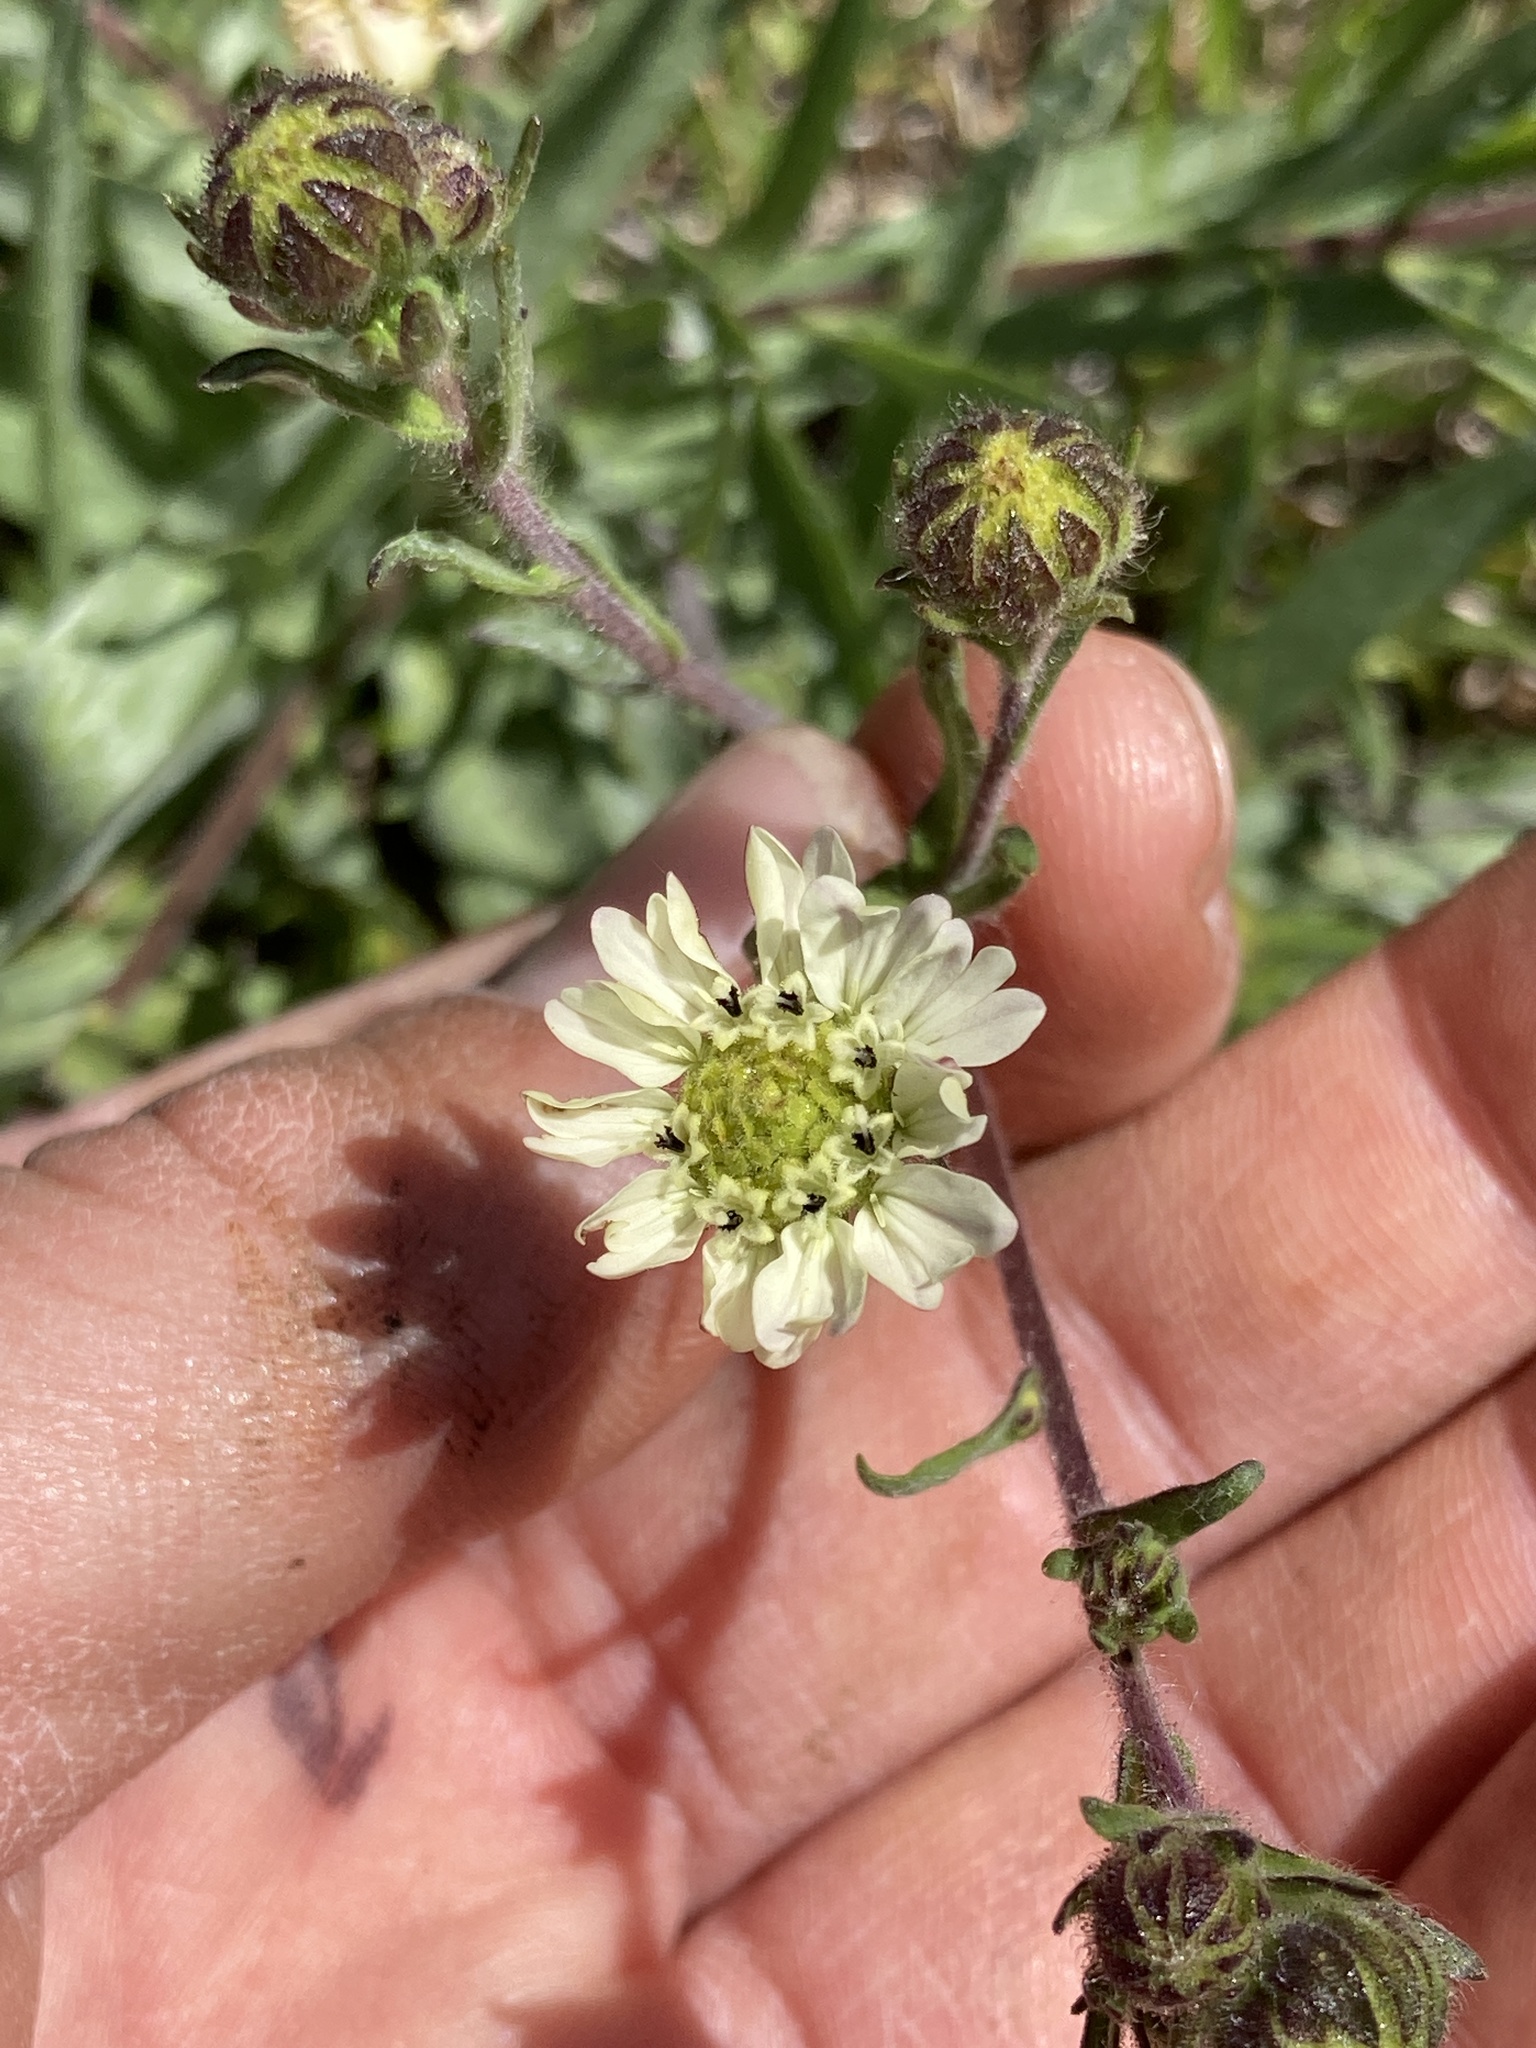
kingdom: Plantae
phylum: Tracheophyta
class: Magnoliopsida
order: Asterales
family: Asteraceae
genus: Hemizonia
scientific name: Hemizonia congesta
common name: Hayfield tarweed
